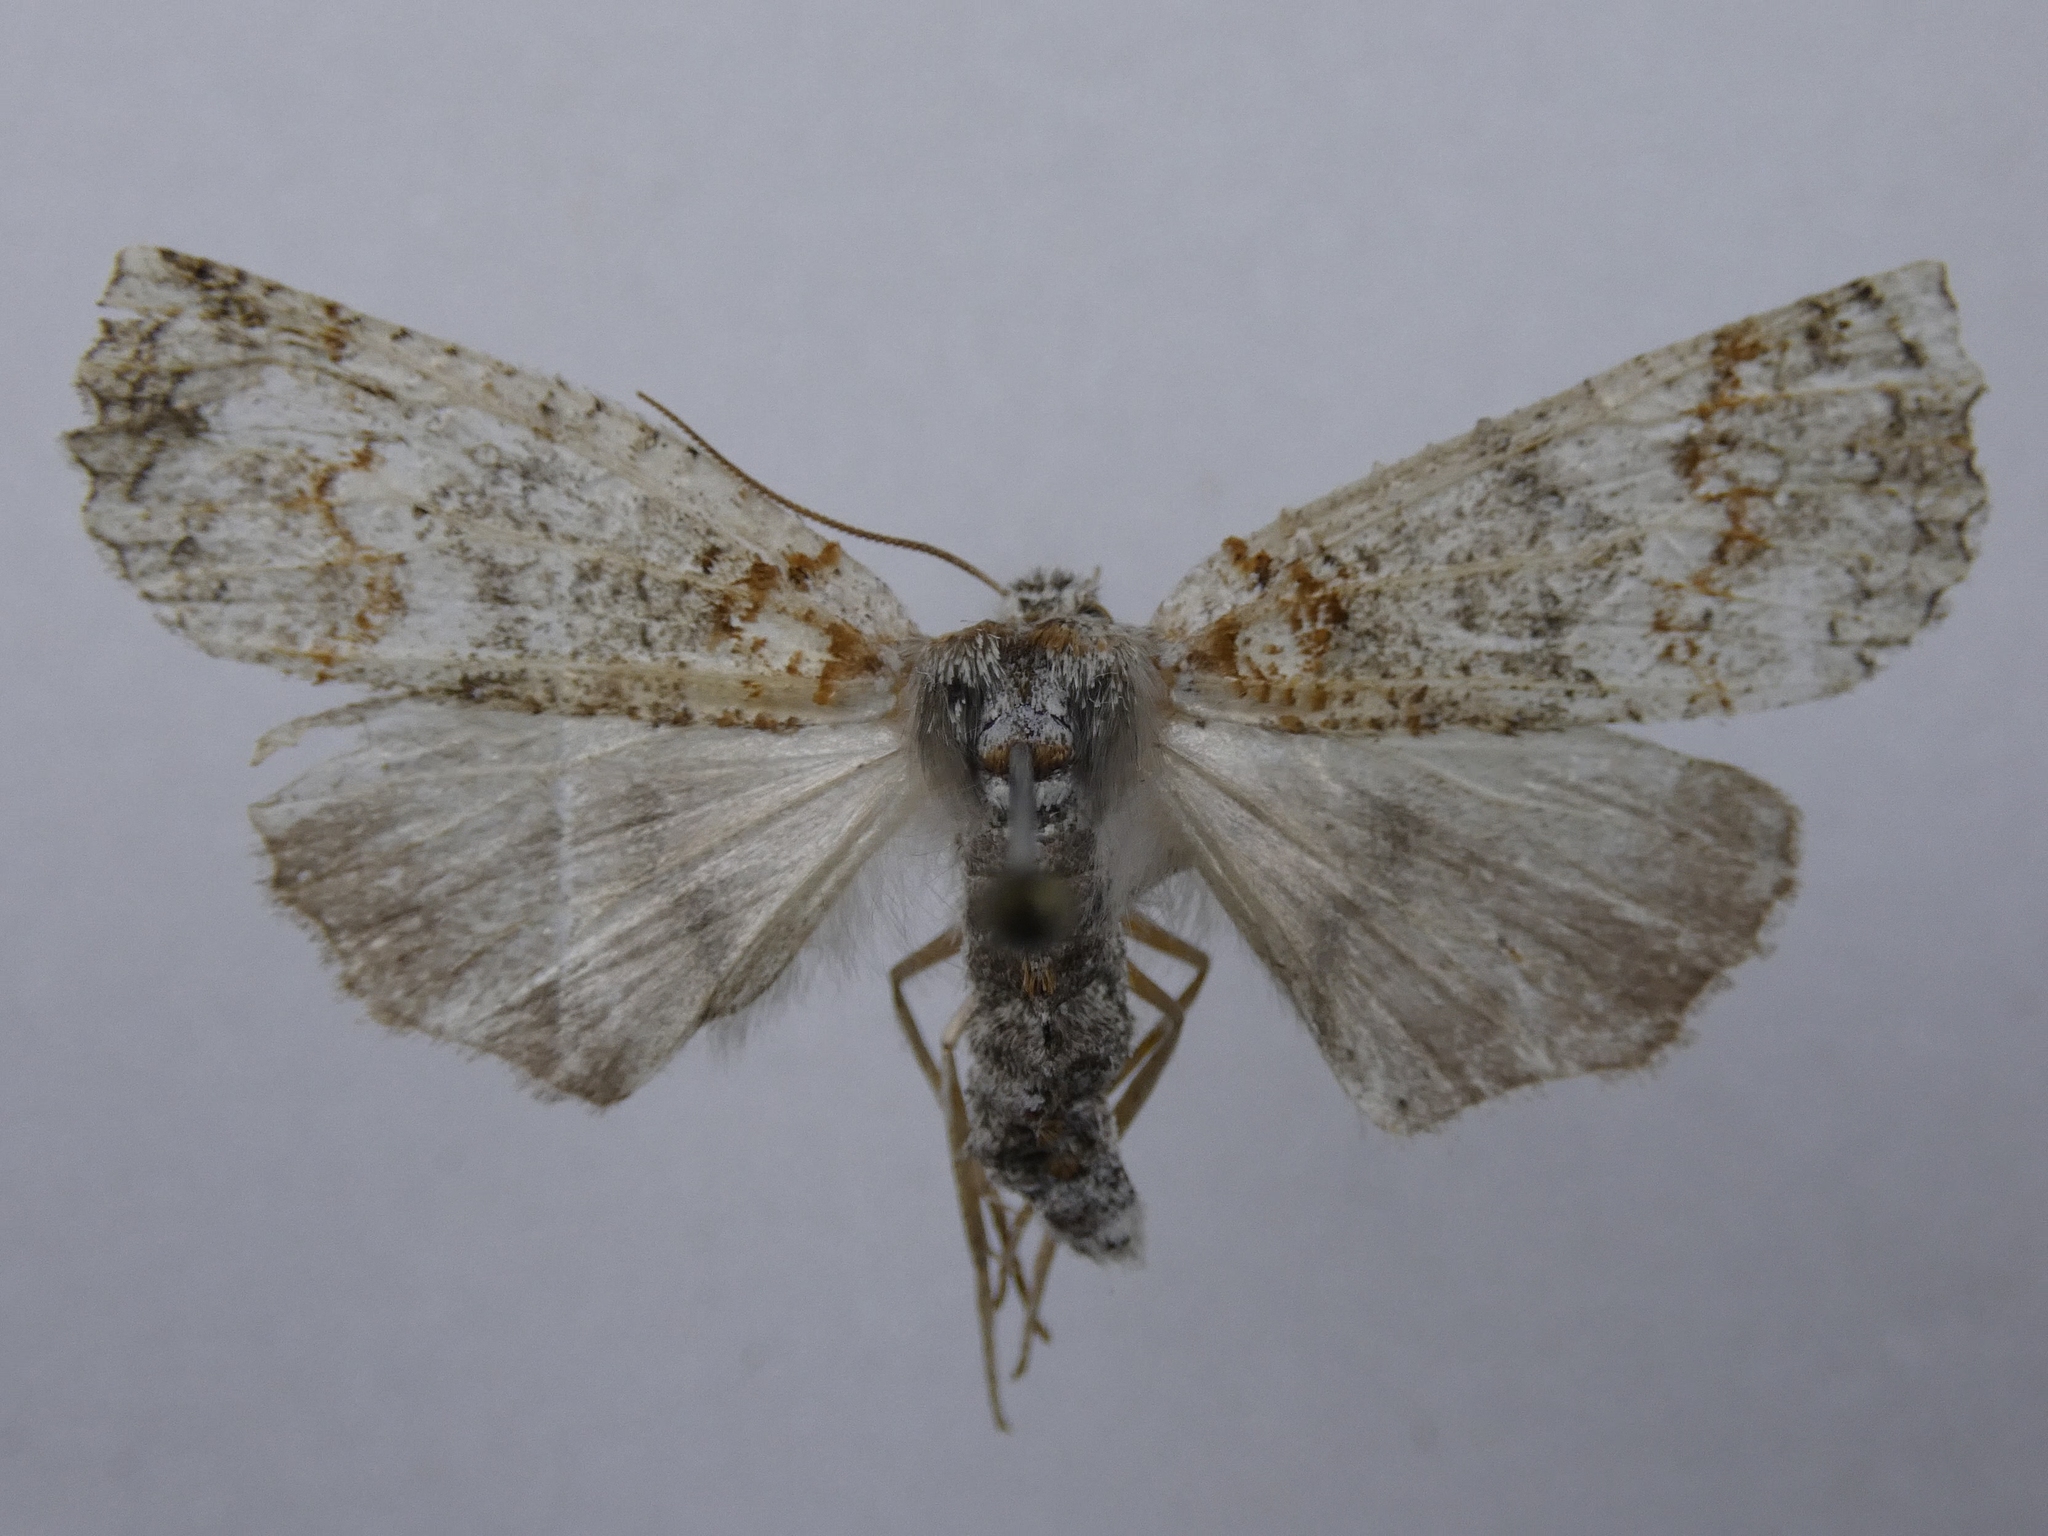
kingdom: Animalia
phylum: Arthropoda
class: Insecta
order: Lepidoptera
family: Geometridae
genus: Declana
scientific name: Declana floccosa
